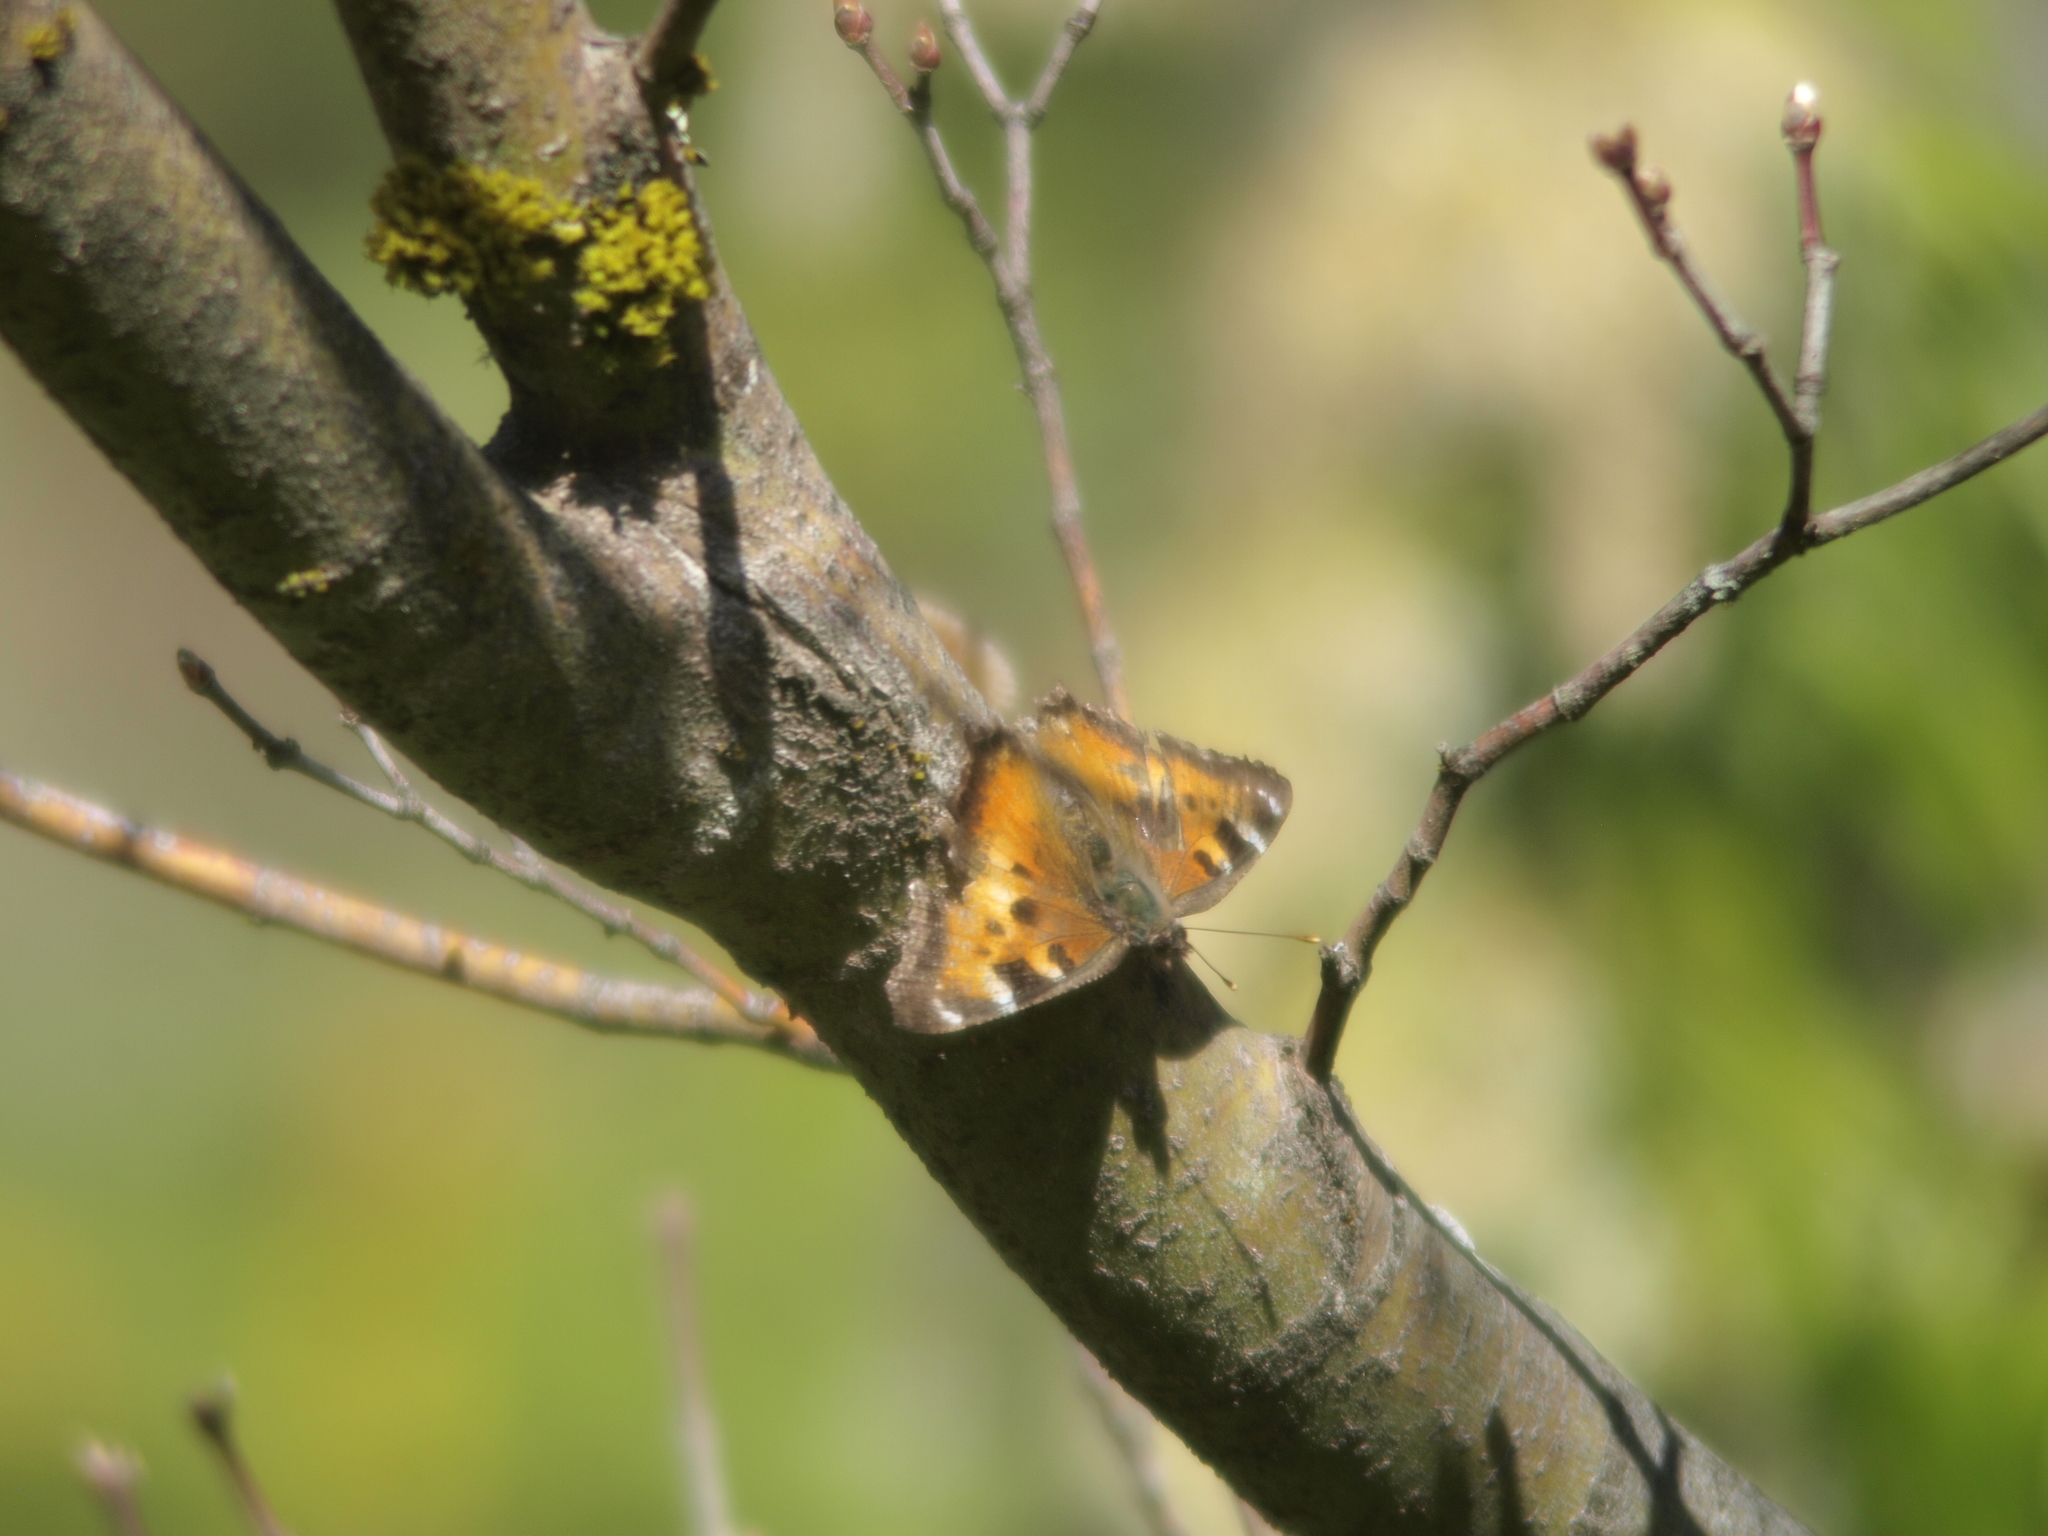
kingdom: Animalia
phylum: Arthropoda
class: Insecta
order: Lepidoptera
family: Nymphalidae
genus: Nymphalis
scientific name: Nymphalis californica
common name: California tortoiseshell
